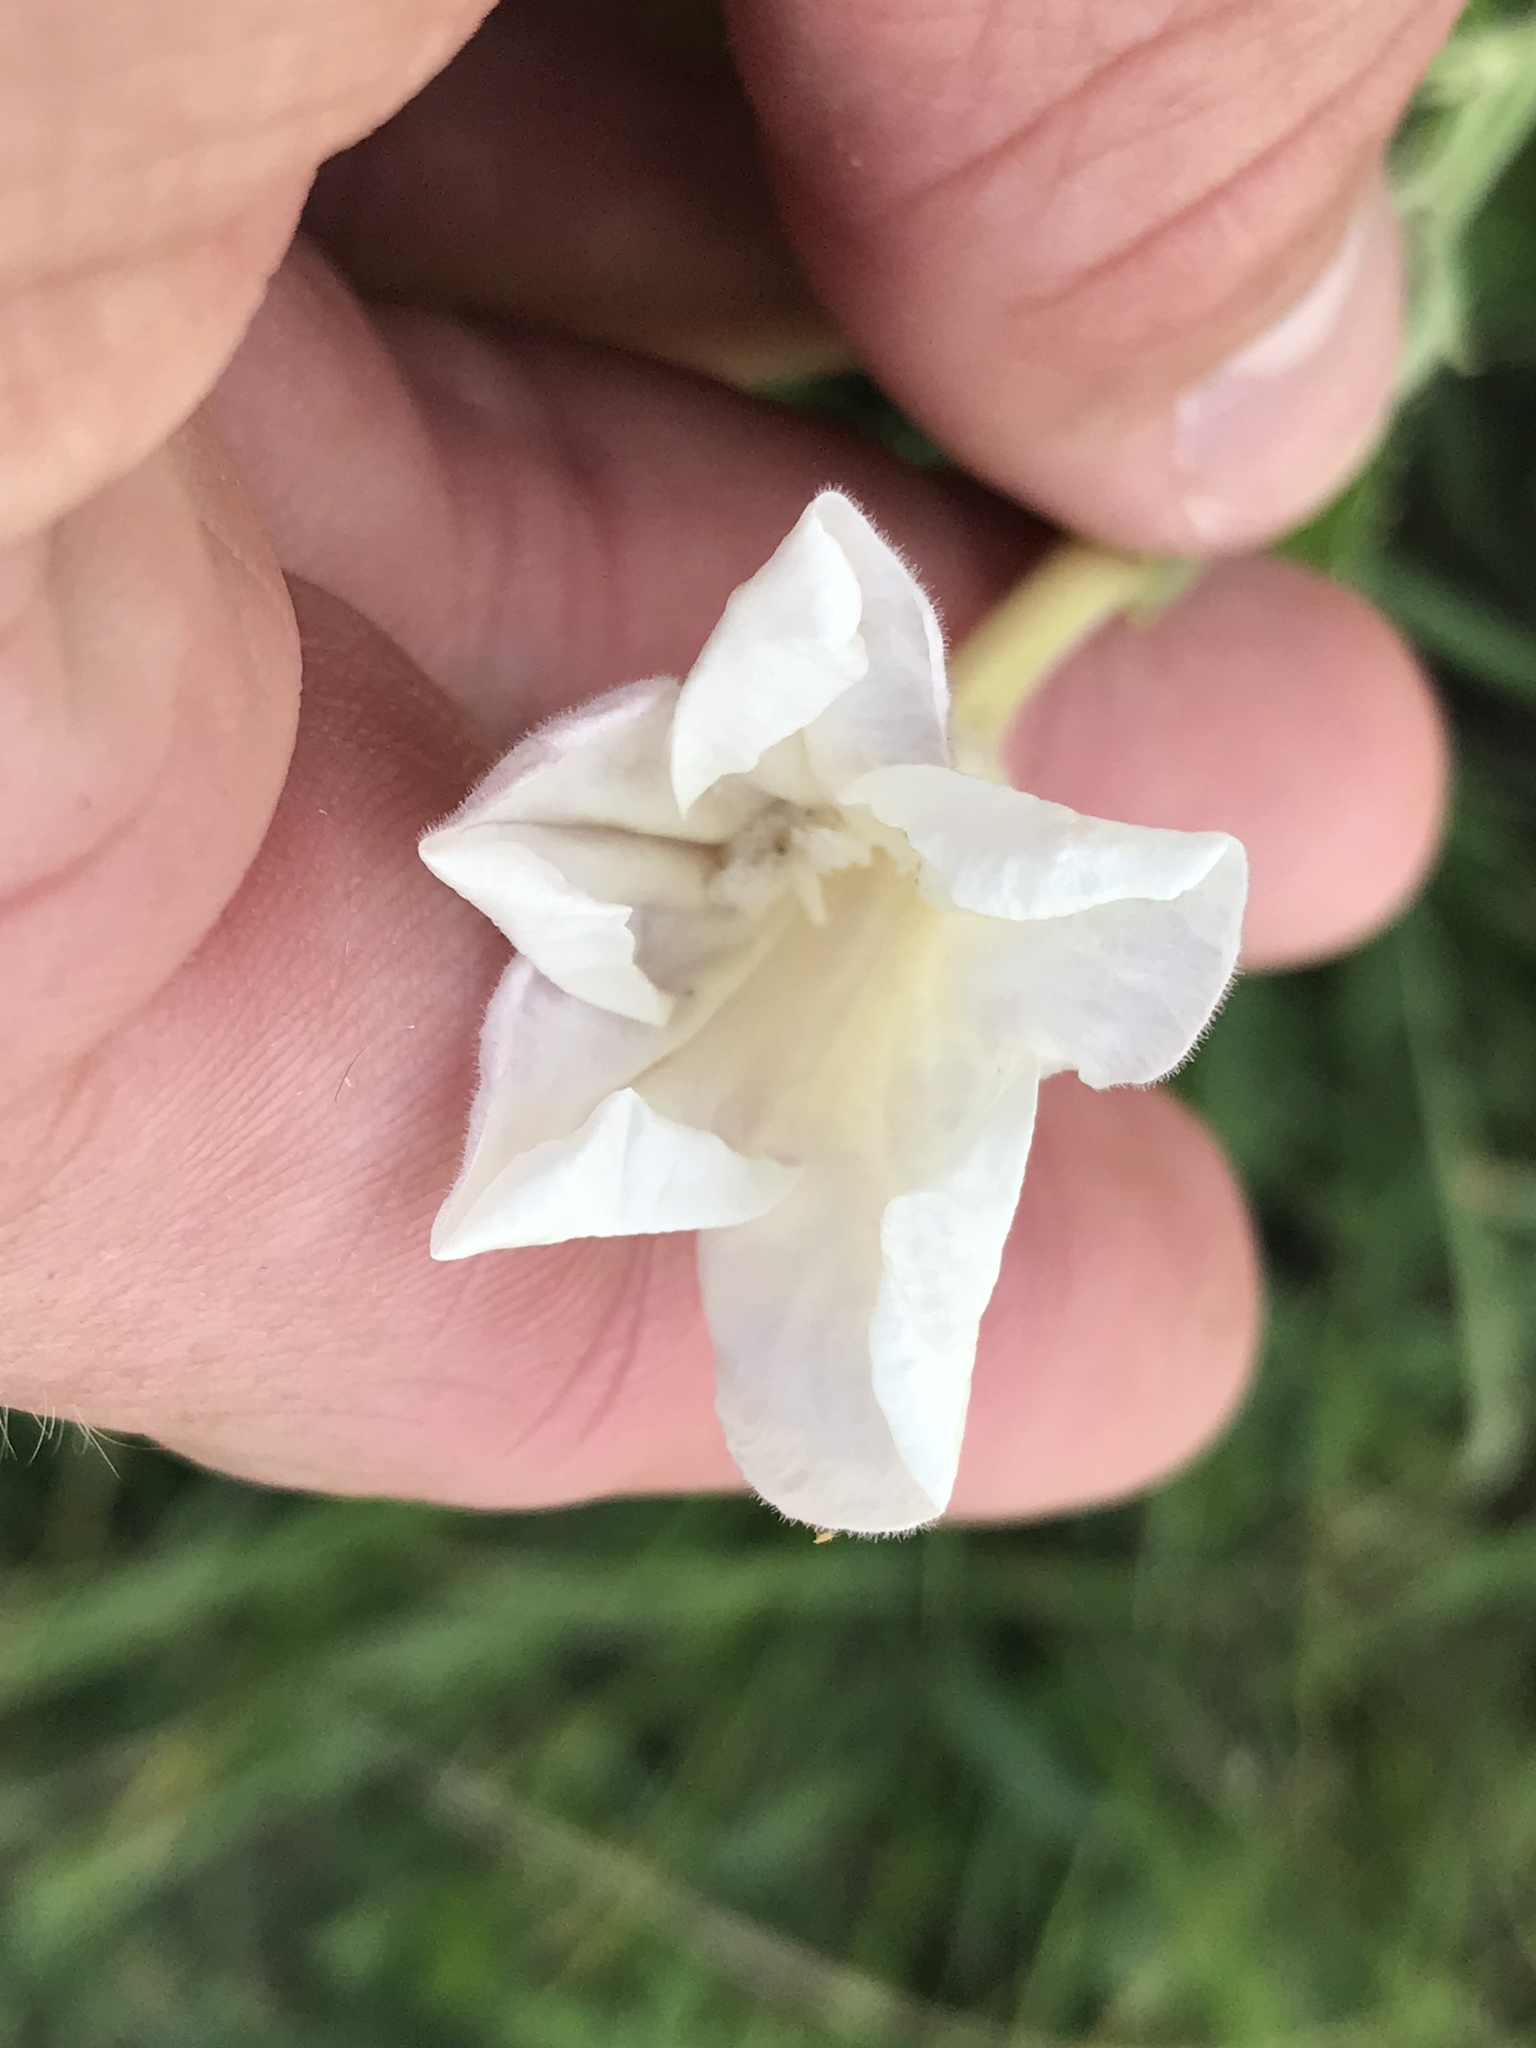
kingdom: Plantae
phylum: Tracheophyta
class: Magnoliopsida
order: Lamiales
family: Acanthaceae
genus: Ruellia
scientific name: Ruellia metziae
